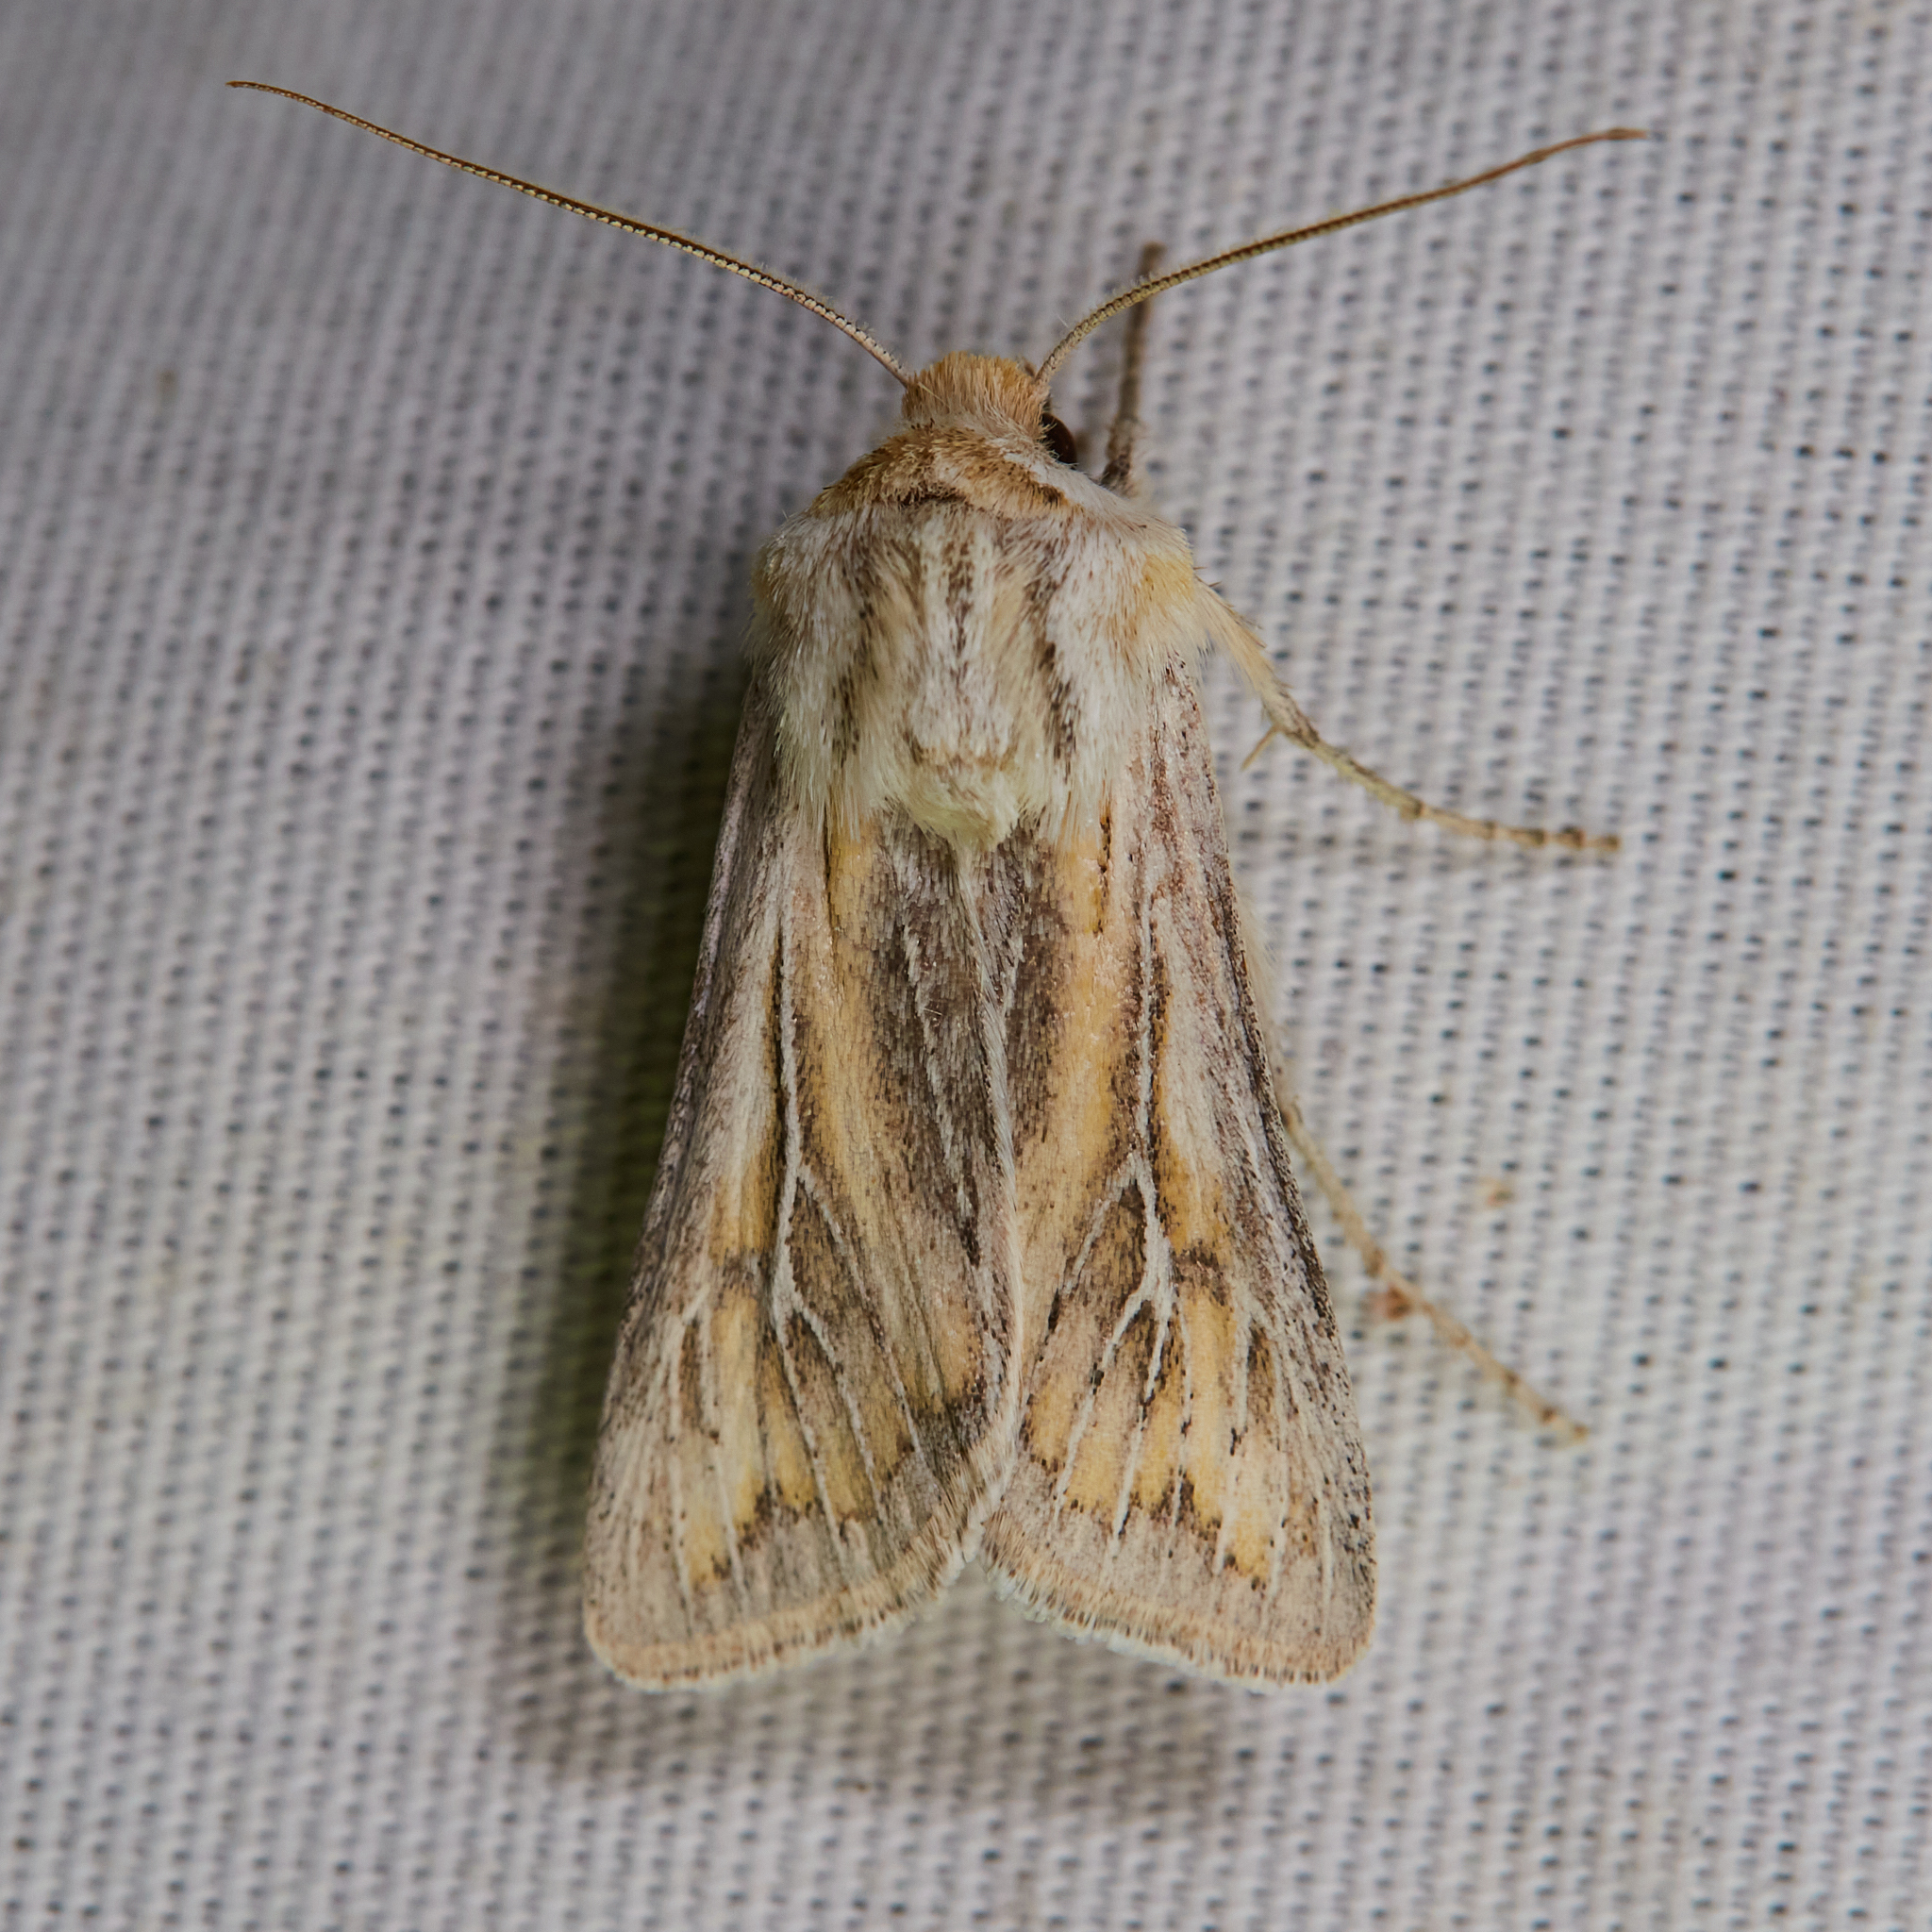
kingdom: Animalia
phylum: Arthropoda
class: Insecta
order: Lepidoptera
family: Noctuidae
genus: Protogygia
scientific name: Protogygia polingi
